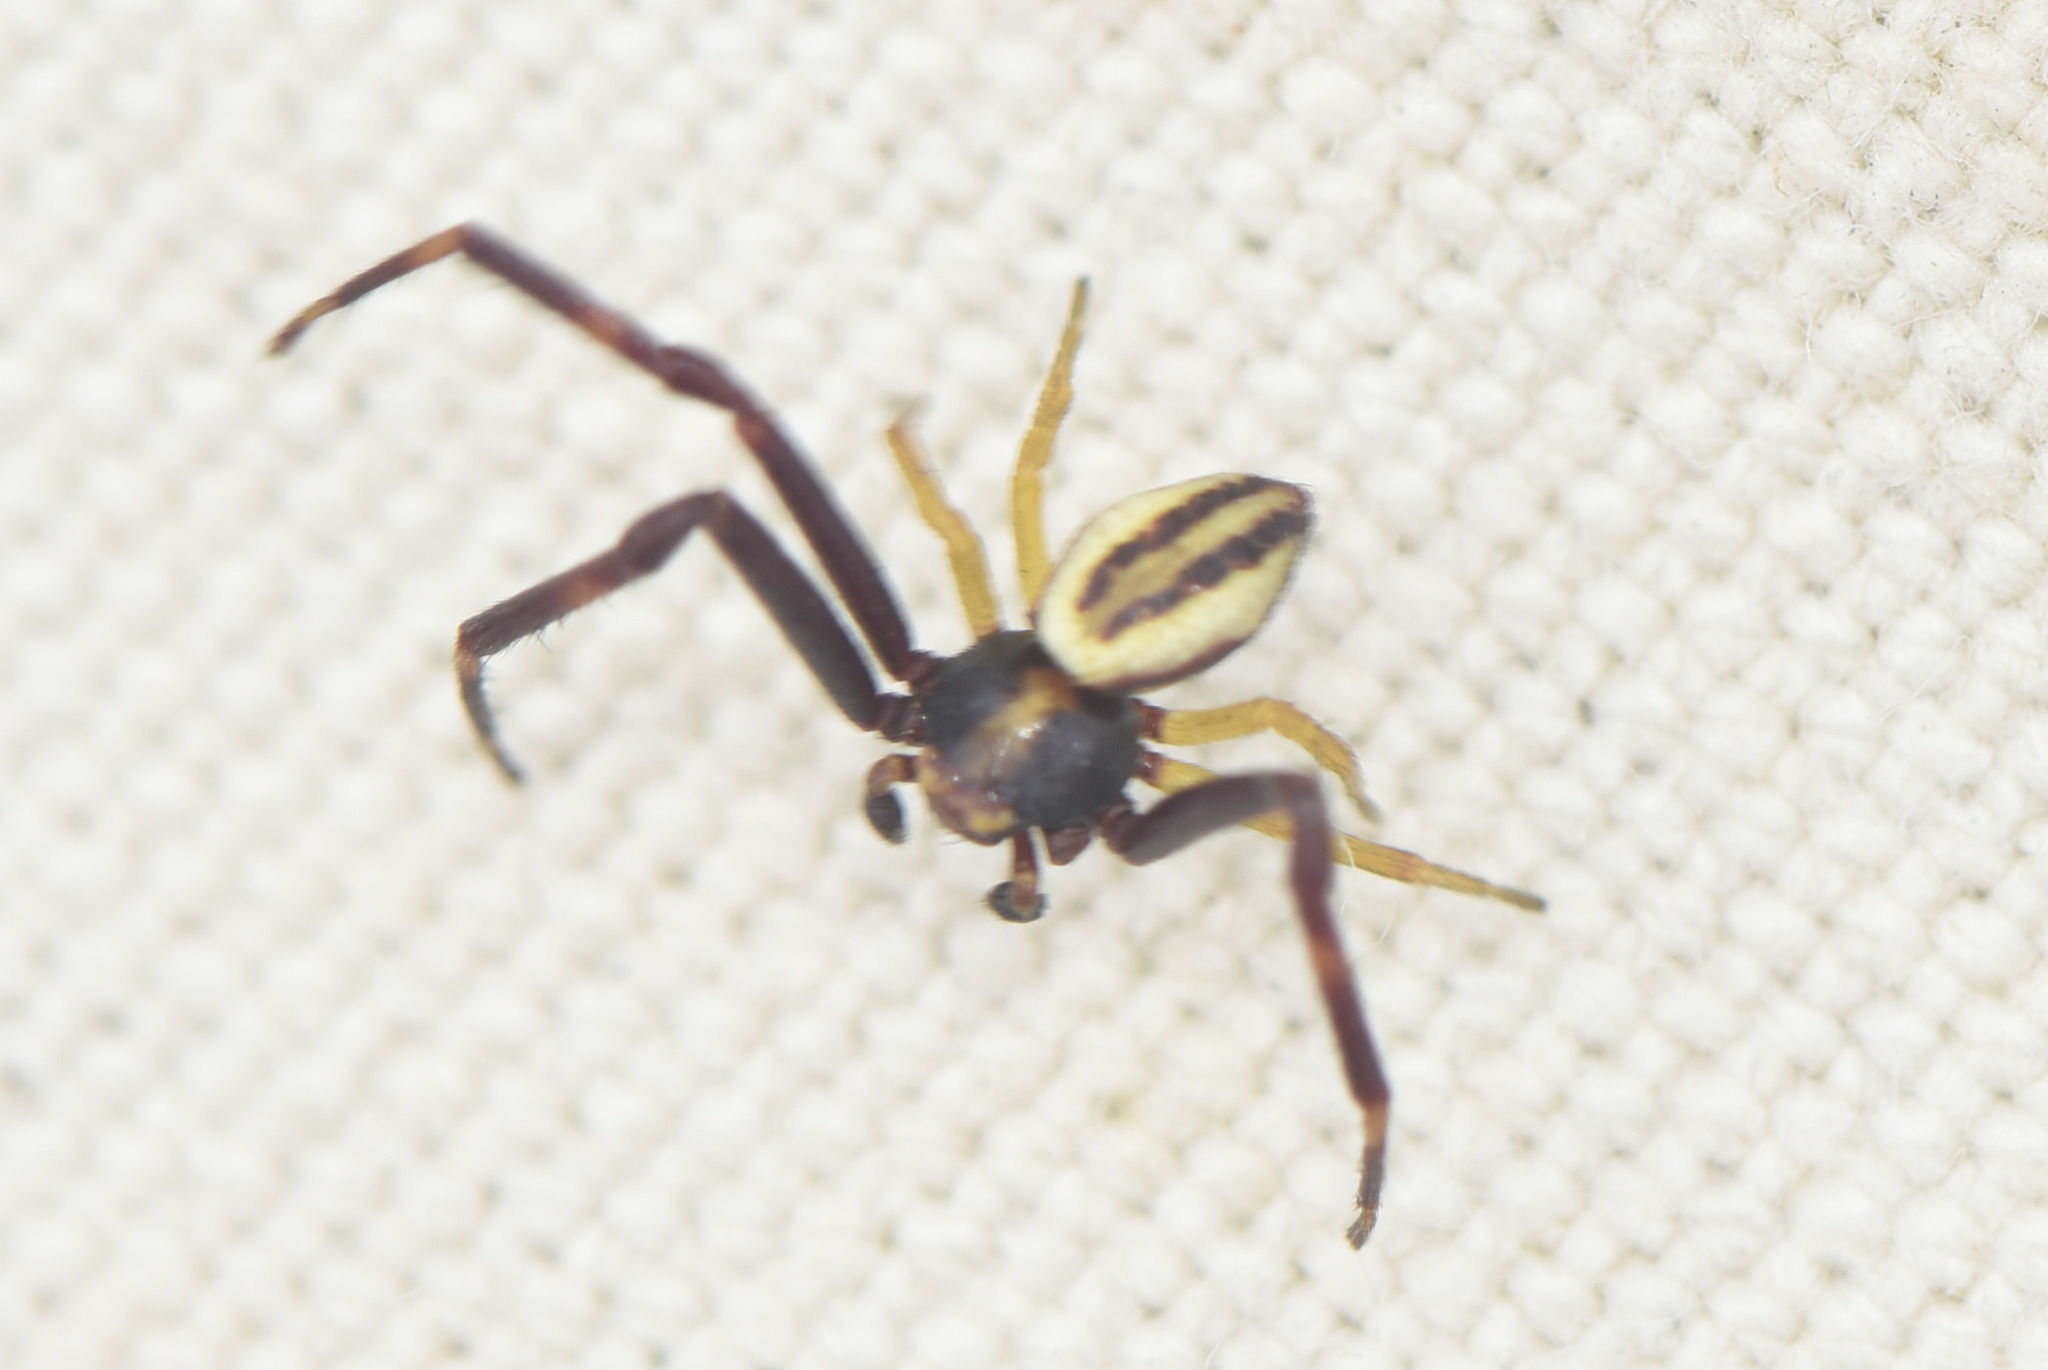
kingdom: Animalia
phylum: Arthropoda
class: Arachnida
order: Araneae
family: Thomisidae
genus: Misumena
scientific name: Misumena vatia
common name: Goldenrod crab spider
